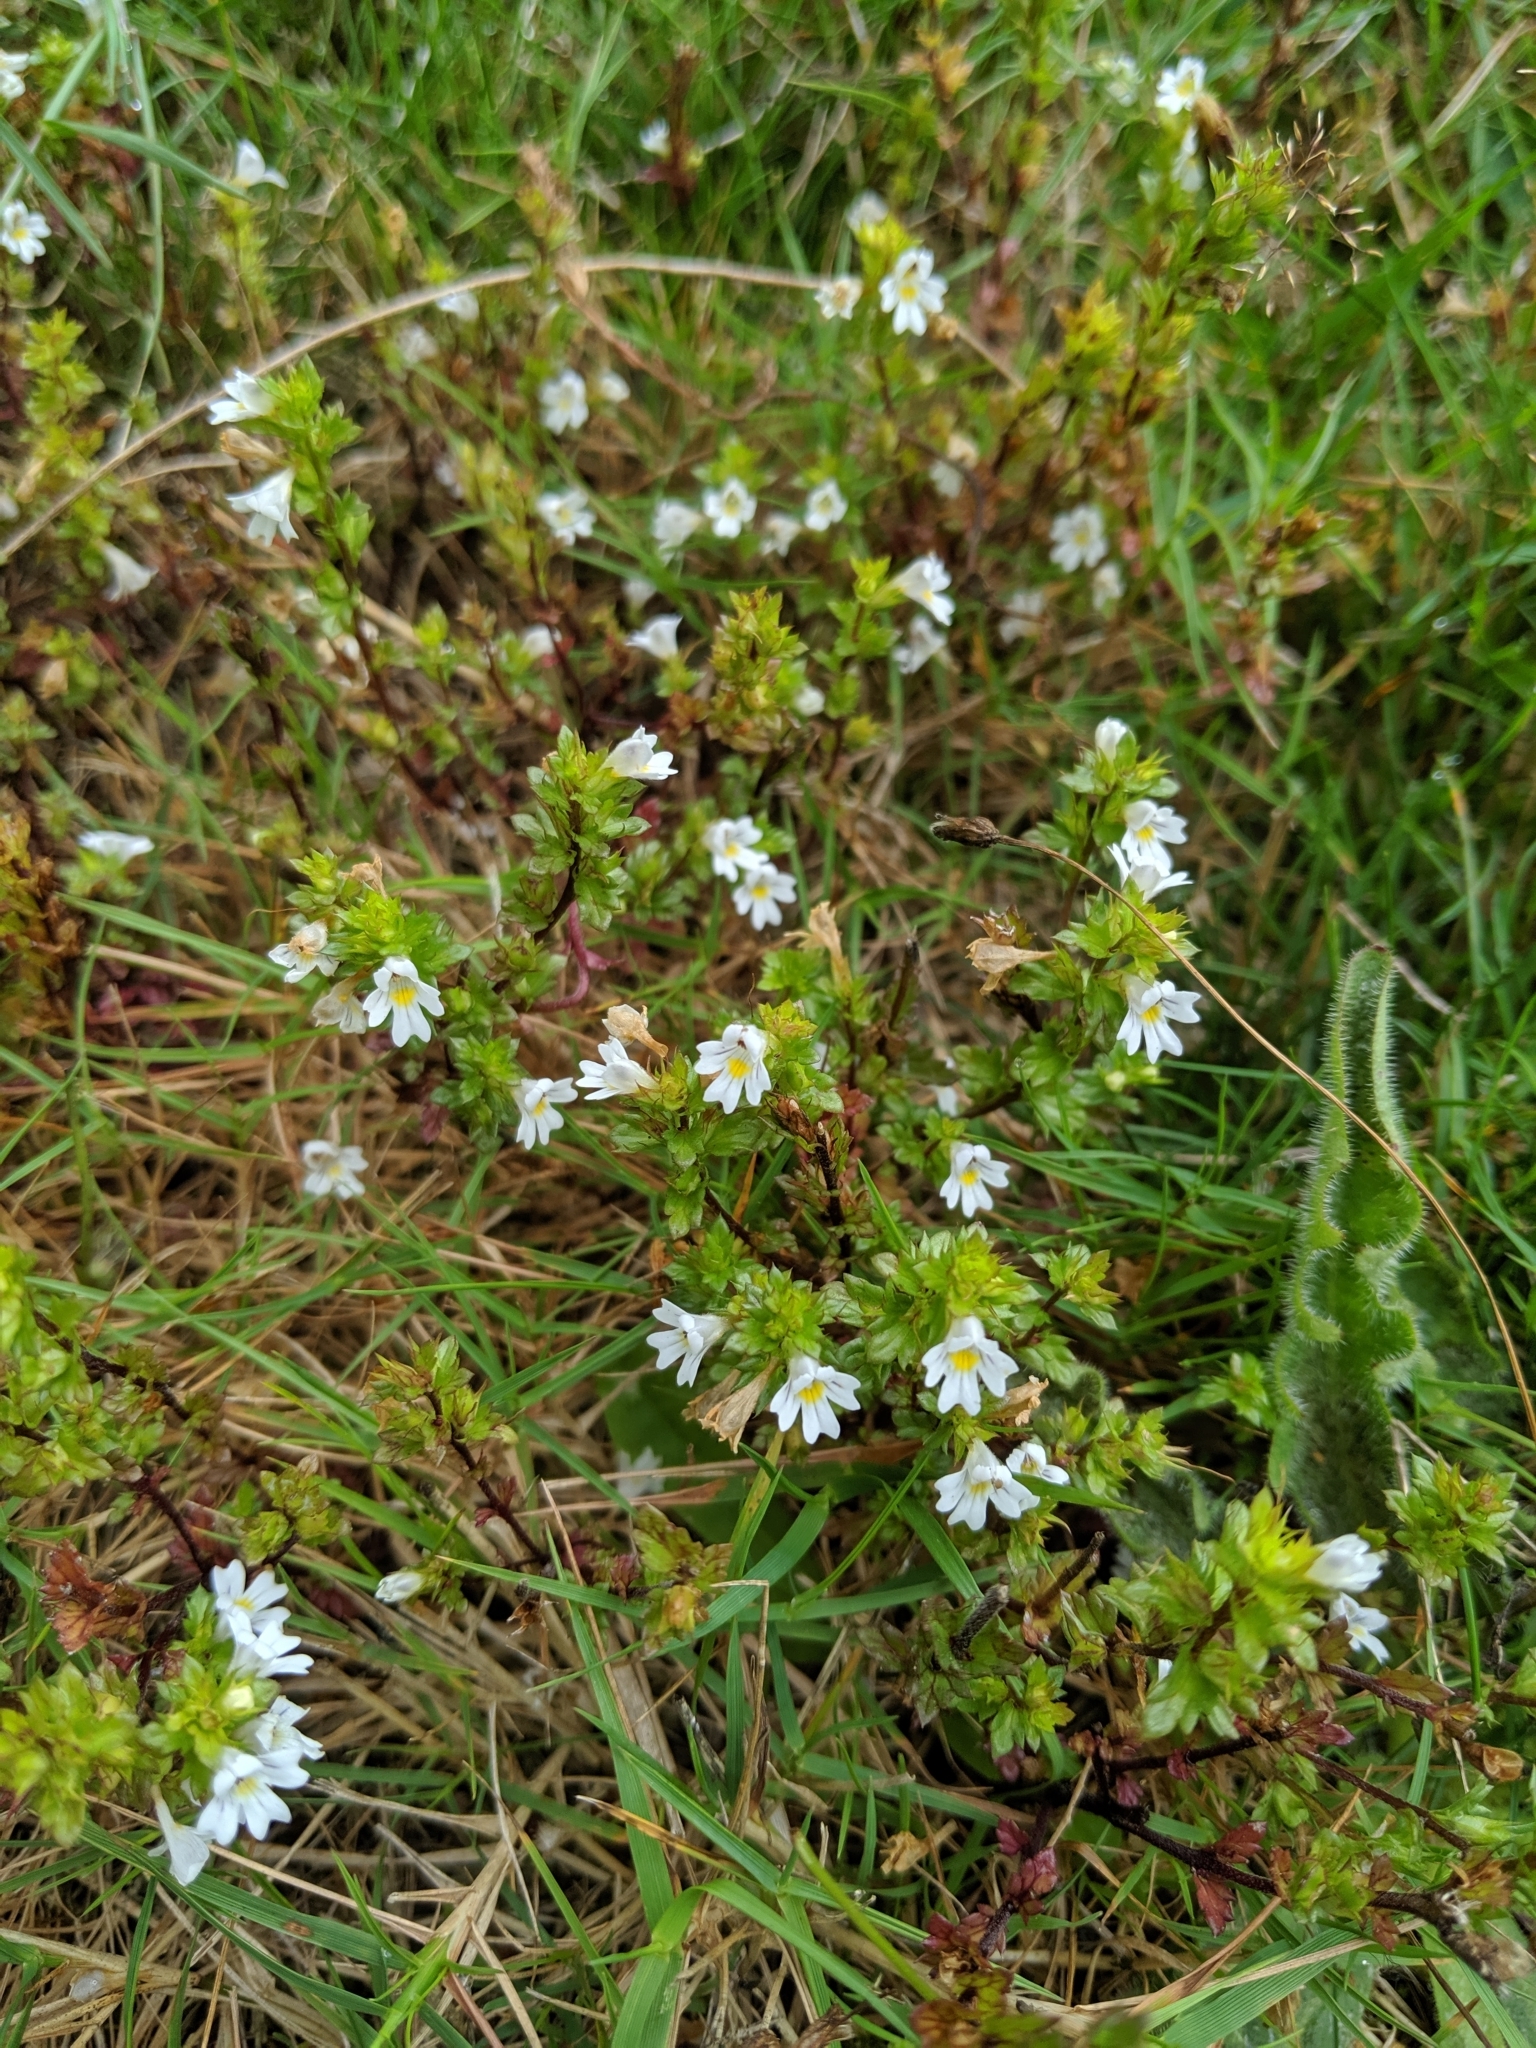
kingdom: Plantae
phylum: Tracheophyta
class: Magnoliopsida
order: Lamiales
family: Orobanchaceae
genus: Euphrasia
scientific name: Euphrasia nemorosa
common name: Common eyebright
